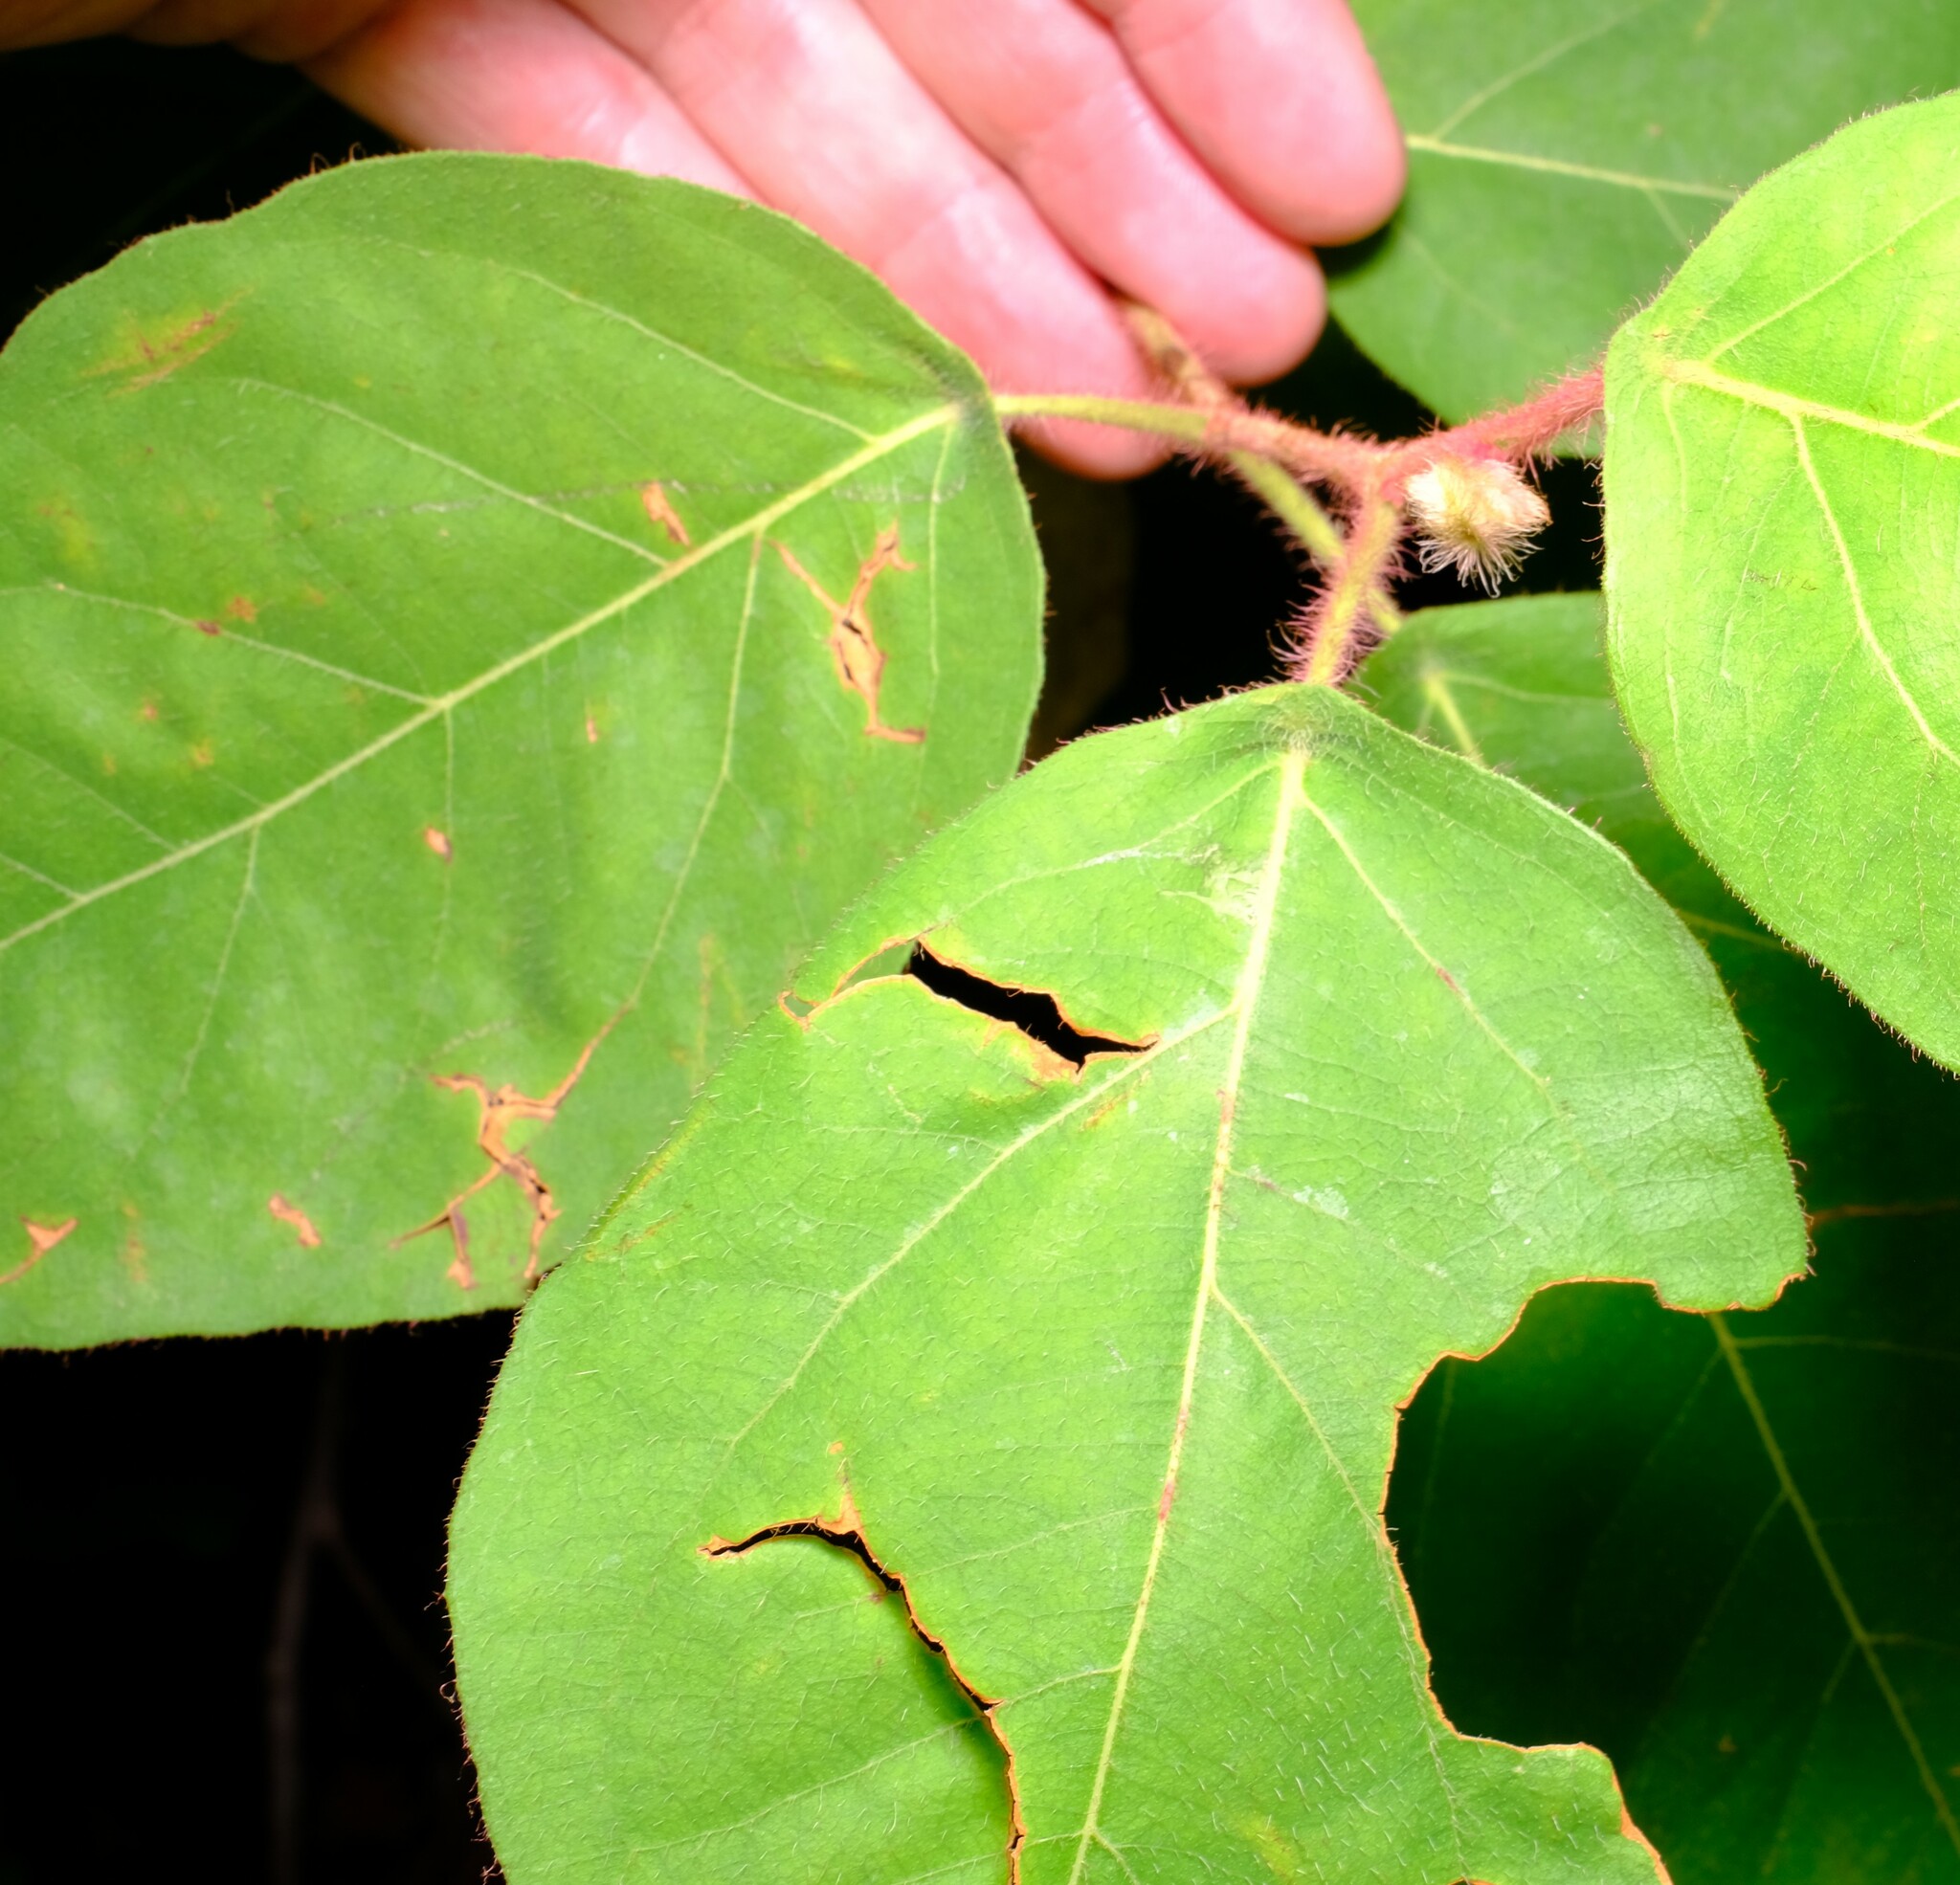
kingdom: Plantae
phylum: Tracheophyta
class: Magnoliopsida
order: Myrtales
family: Myrtaceae
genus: Corymbia
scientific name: Corymbia torelliana
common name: Cadaghi
